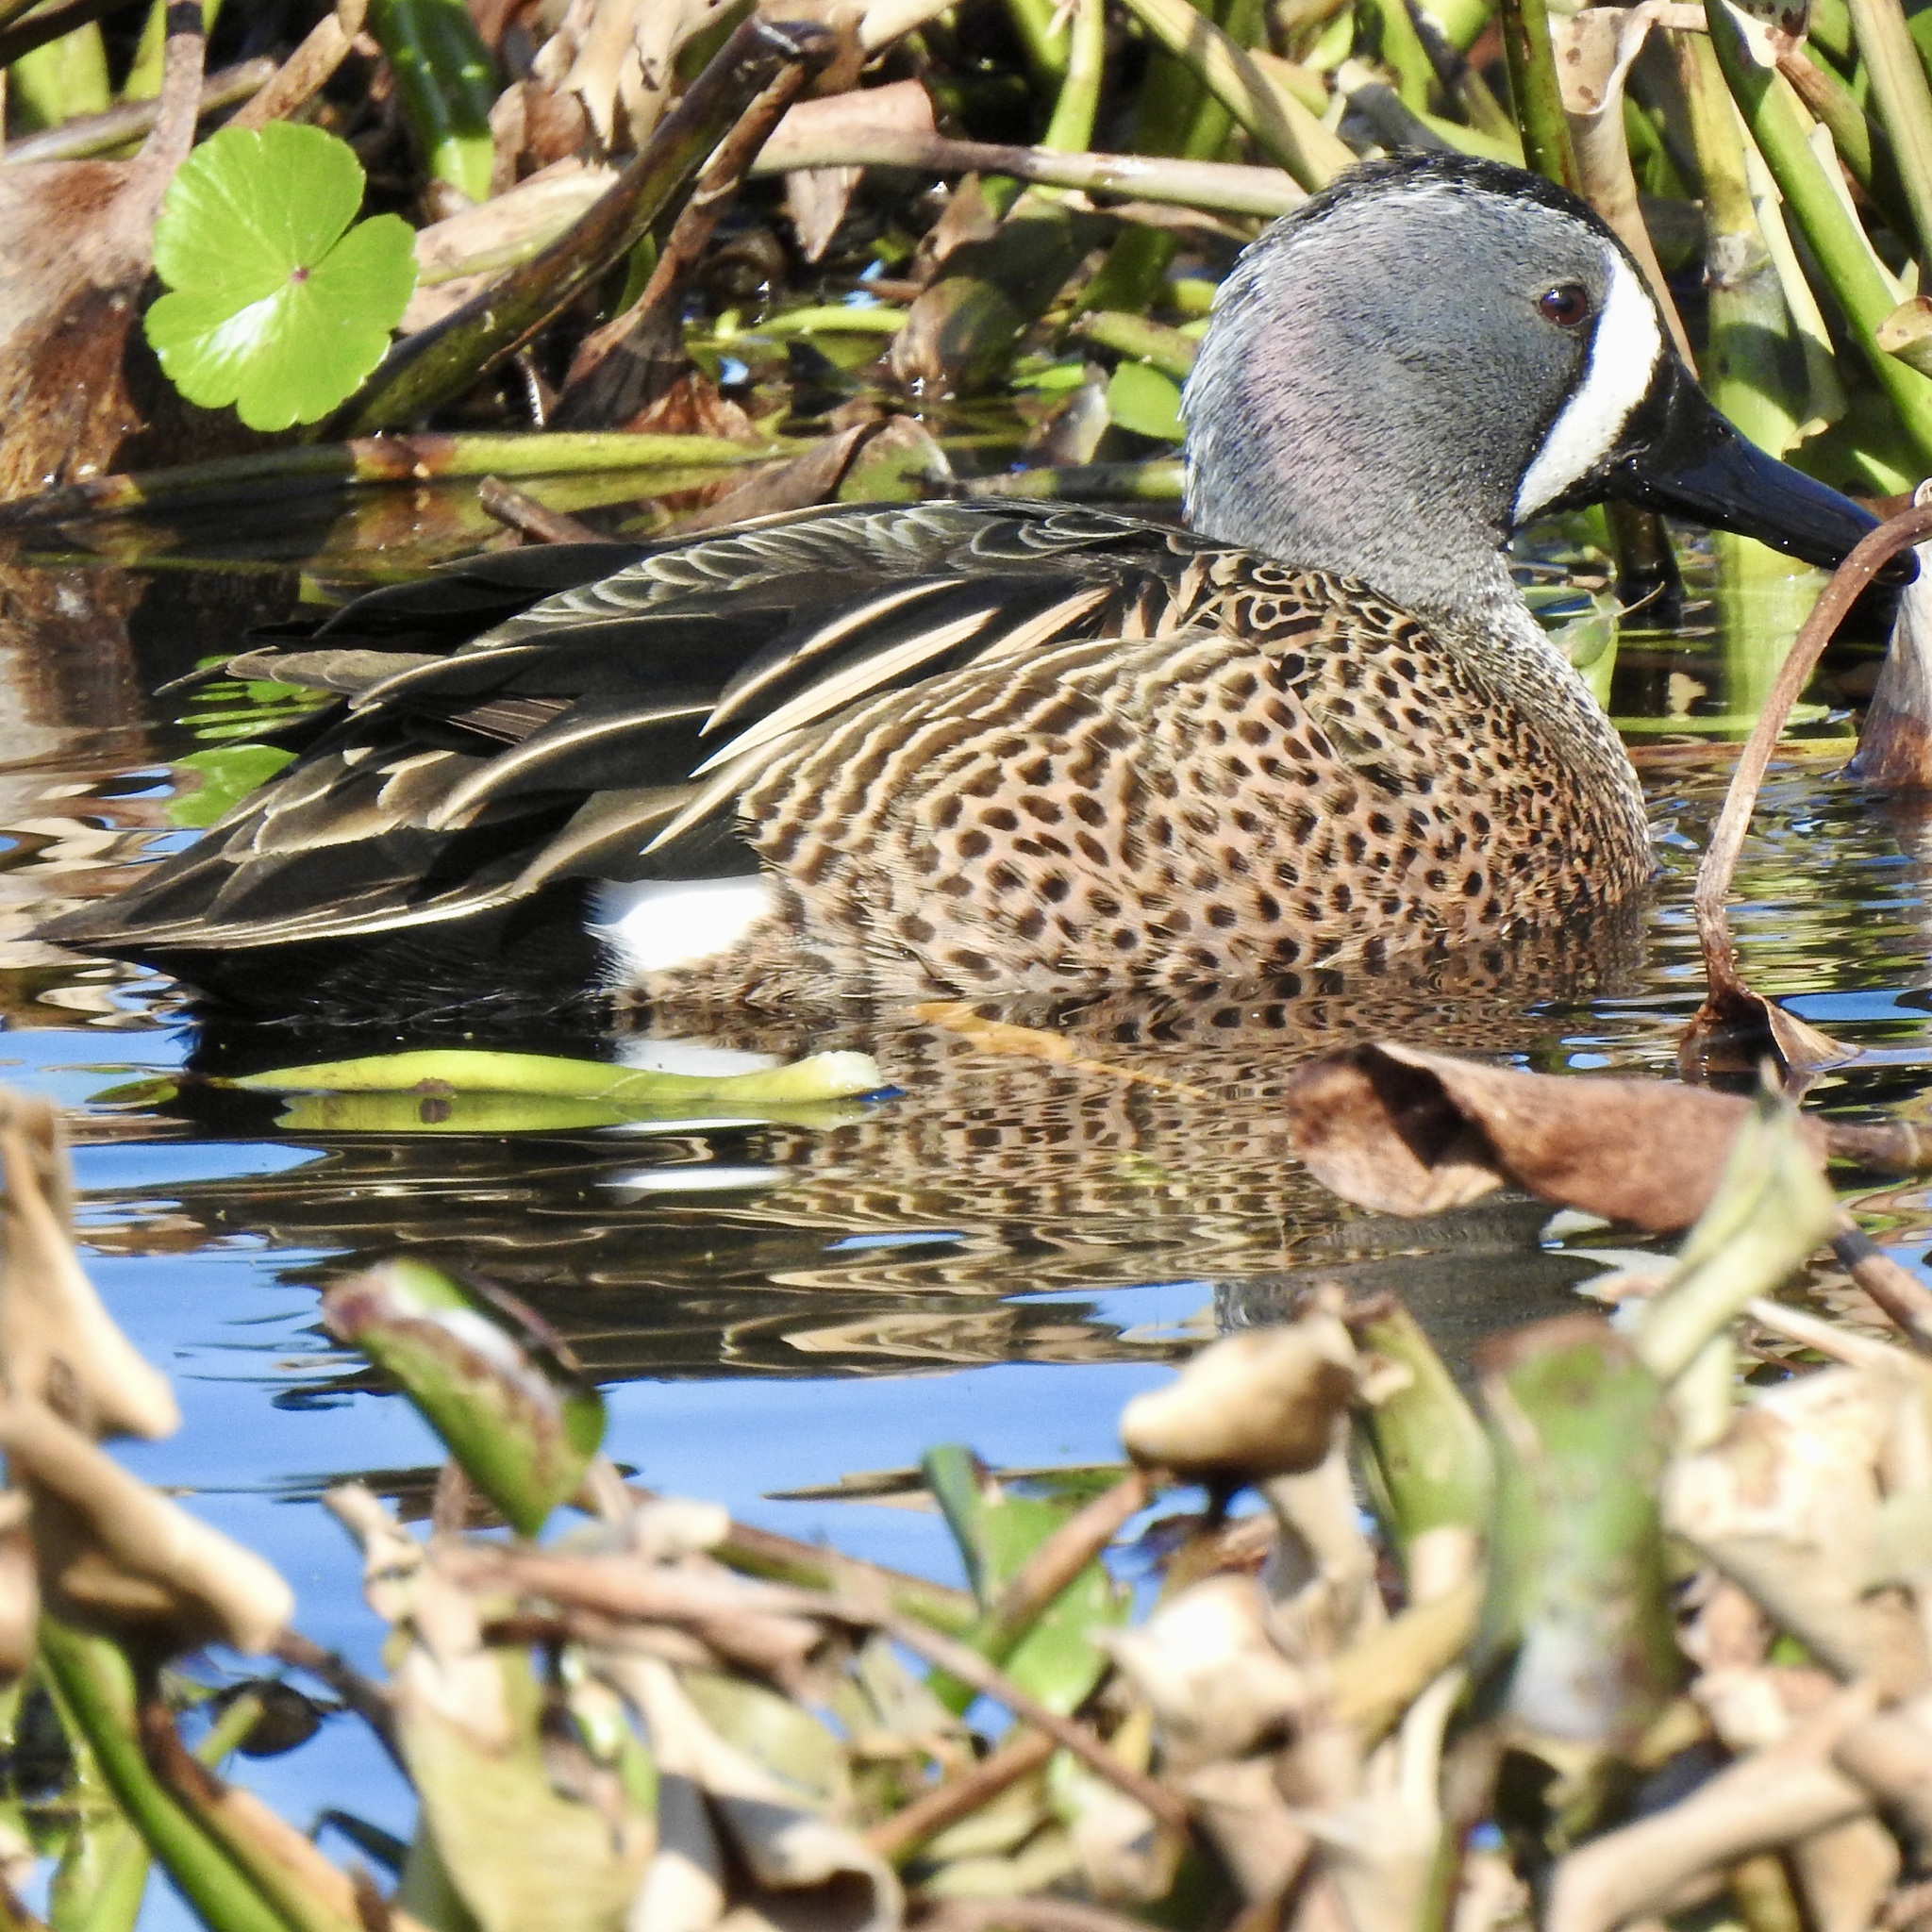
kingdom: Animalia
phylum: Chordata
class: Aves
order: Anseriformes
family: Anatidae
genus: Spatula
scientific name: Spatula discors
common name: Blue-winged teal
